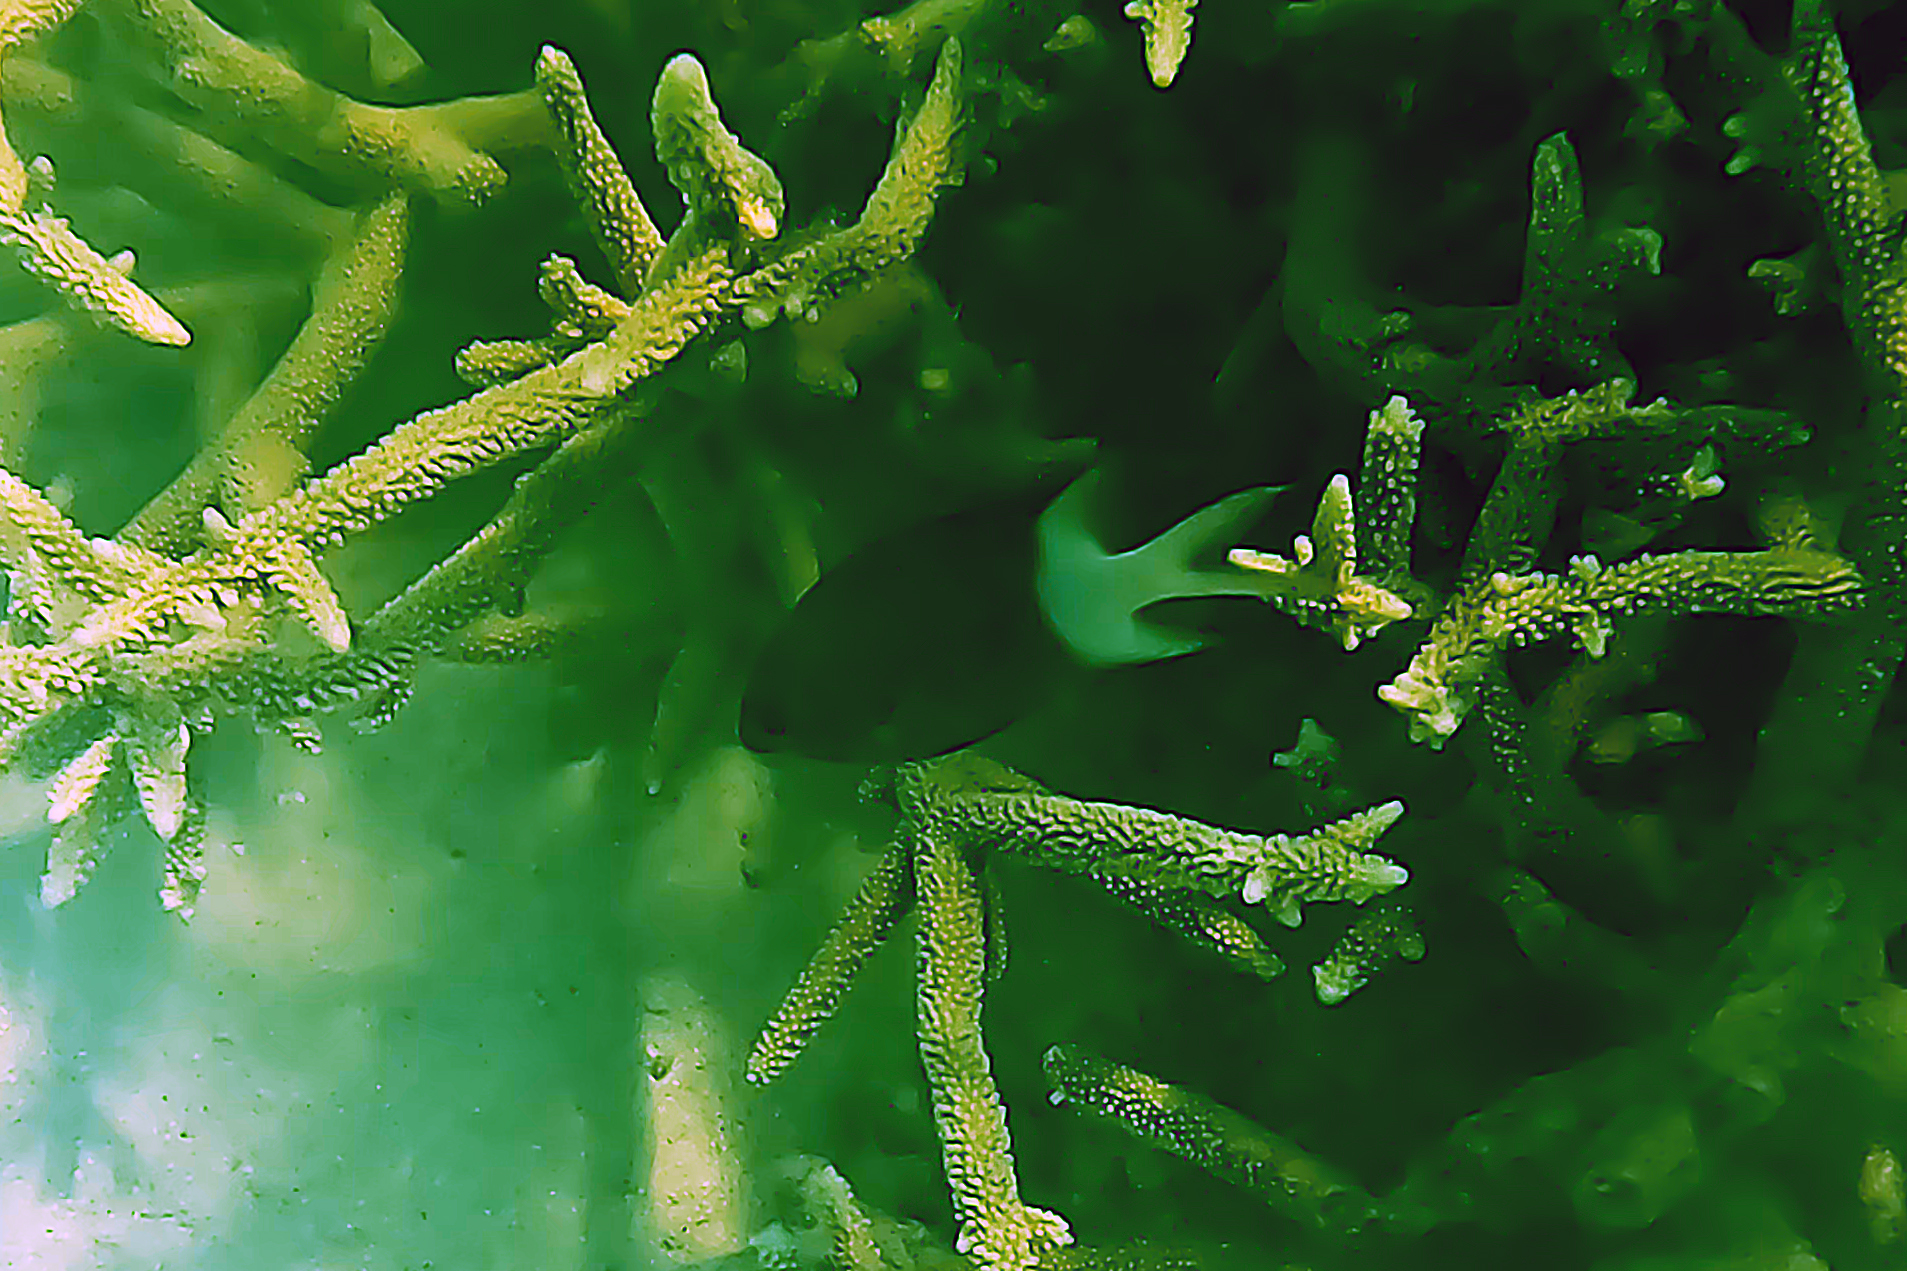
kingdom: Animalia
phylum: Chordata
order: Perciformes
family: Pomacentridae
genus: Acanthochromis
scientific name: Acanthochromis polyacanthus
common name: Spiny chromis
